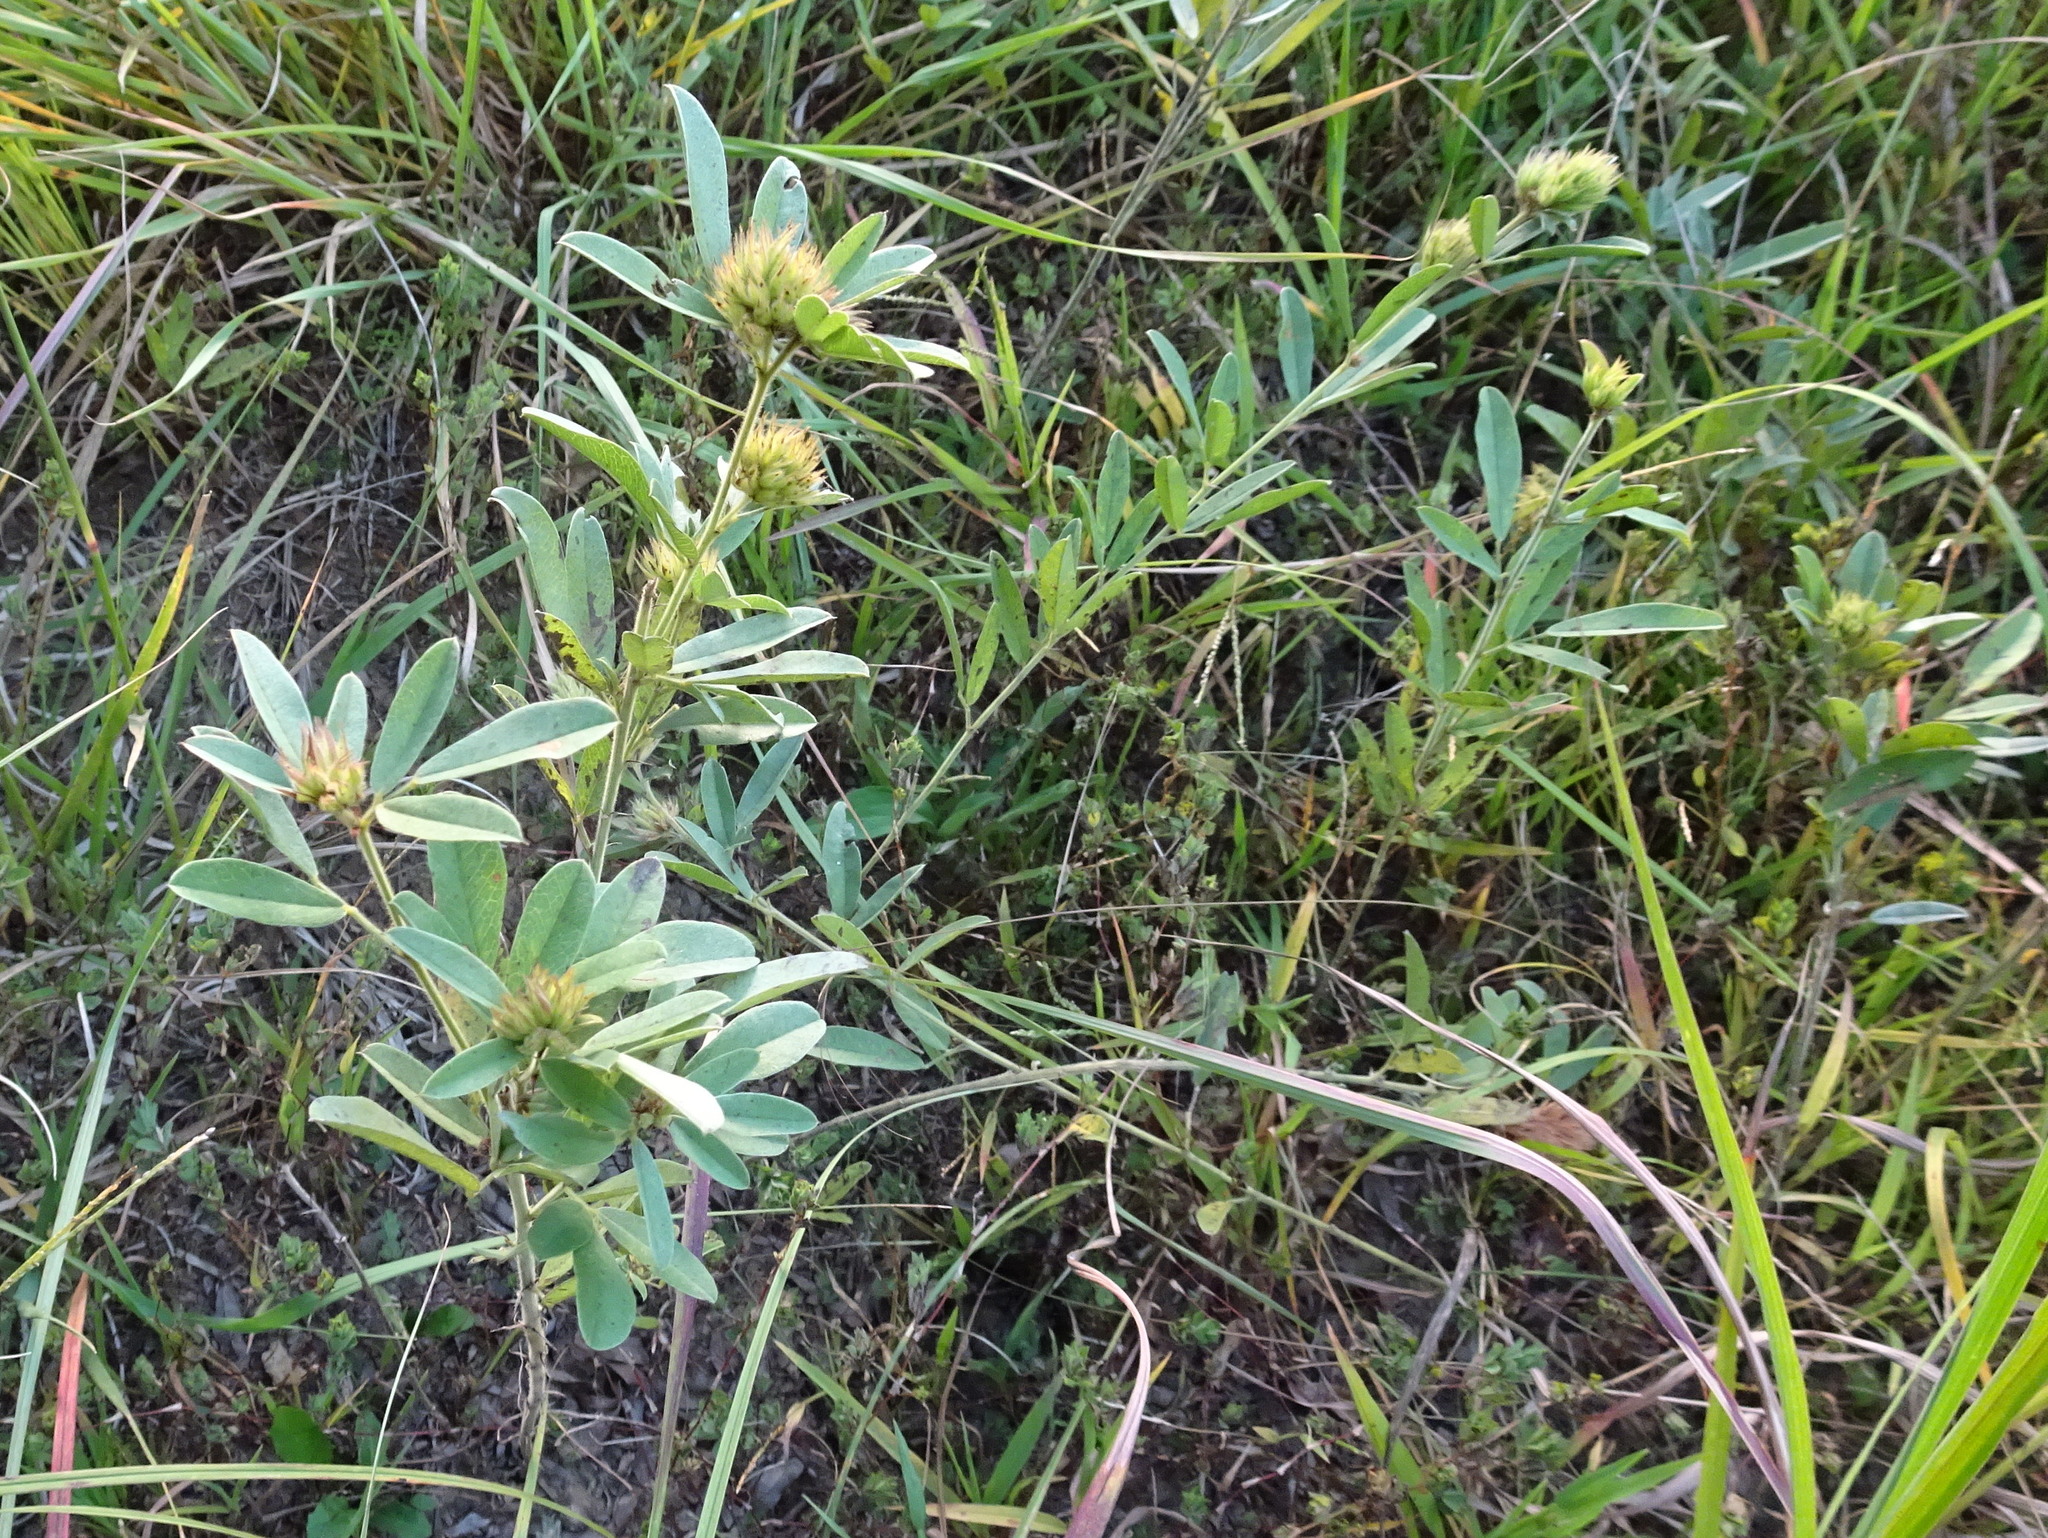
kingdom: Plantae
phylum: Tracheophyta
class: Magnoliopsida
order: Fabales
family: Fabaceae
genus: Lespedeza
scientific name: Lespedeza capitata
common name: Dusty clover
